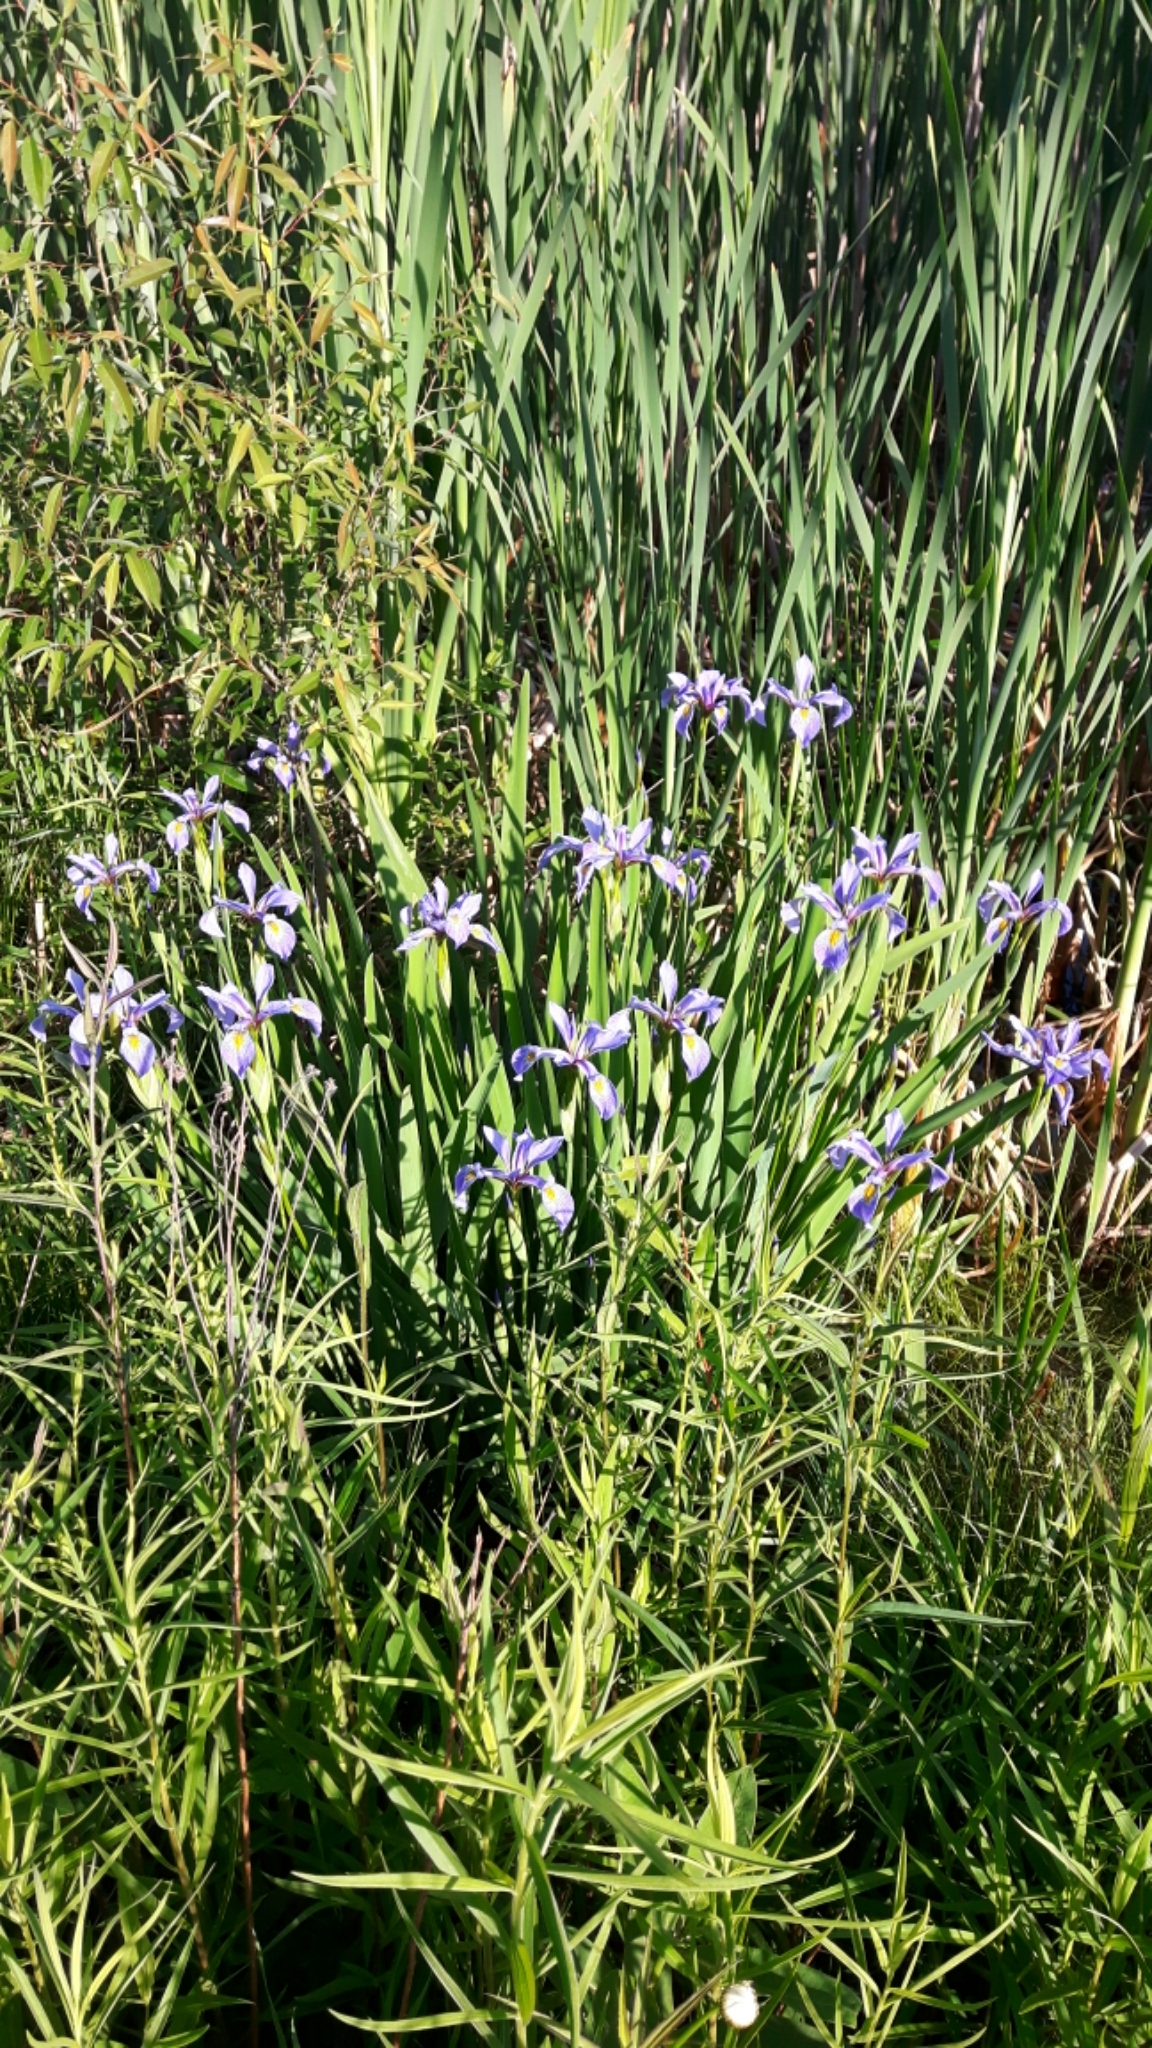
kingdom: Plantae
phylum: Tracheophyta
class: Liliopsida
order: Asparagales
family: Iridaceae
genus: Iris
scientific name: Iris virginica
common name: Southern blue flag
